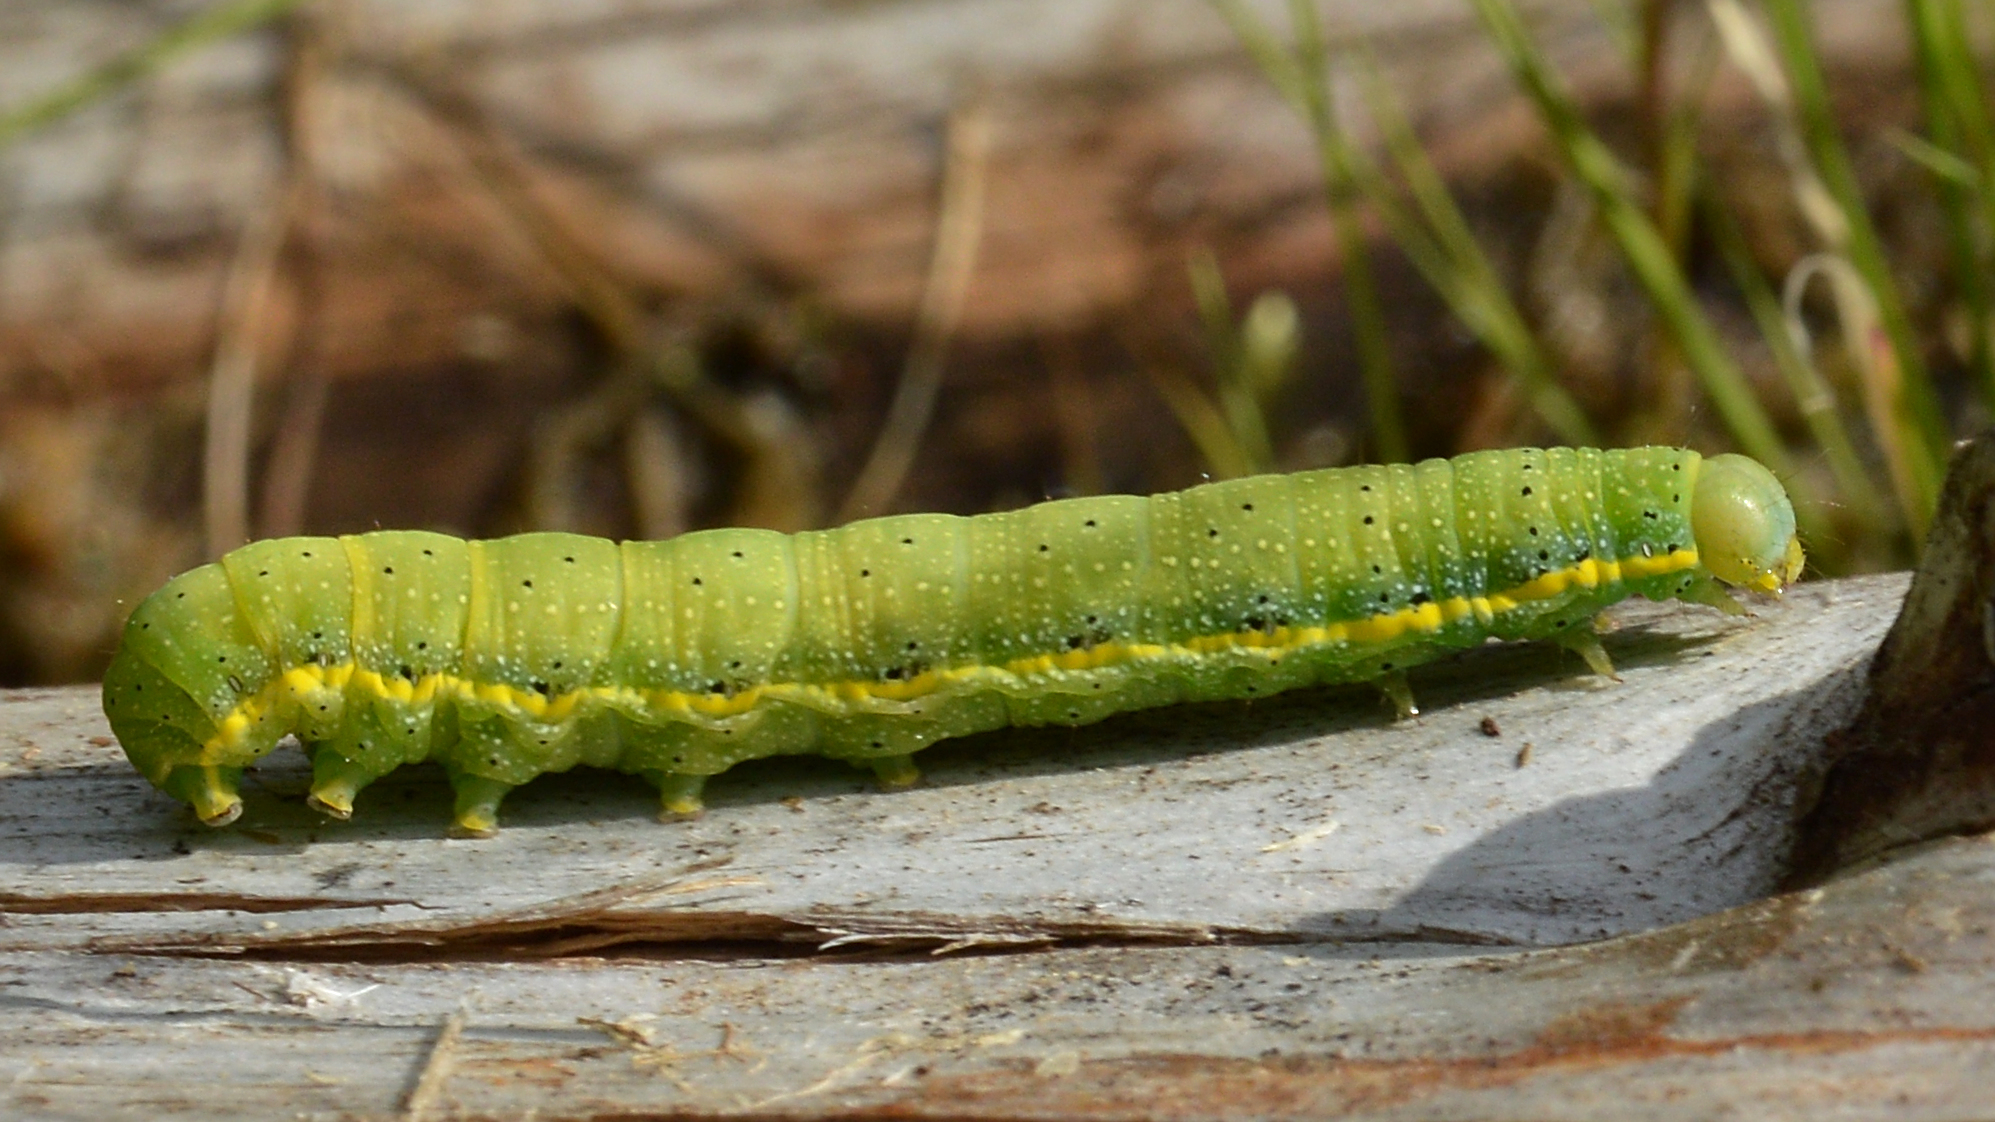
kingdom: Animalia
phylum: Arthropoda
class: Insecta
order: Lepidoptera
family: Noctuidae
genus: Lacanobia
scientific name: Lacanobia oleracea
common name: Bright-line brown-eye
